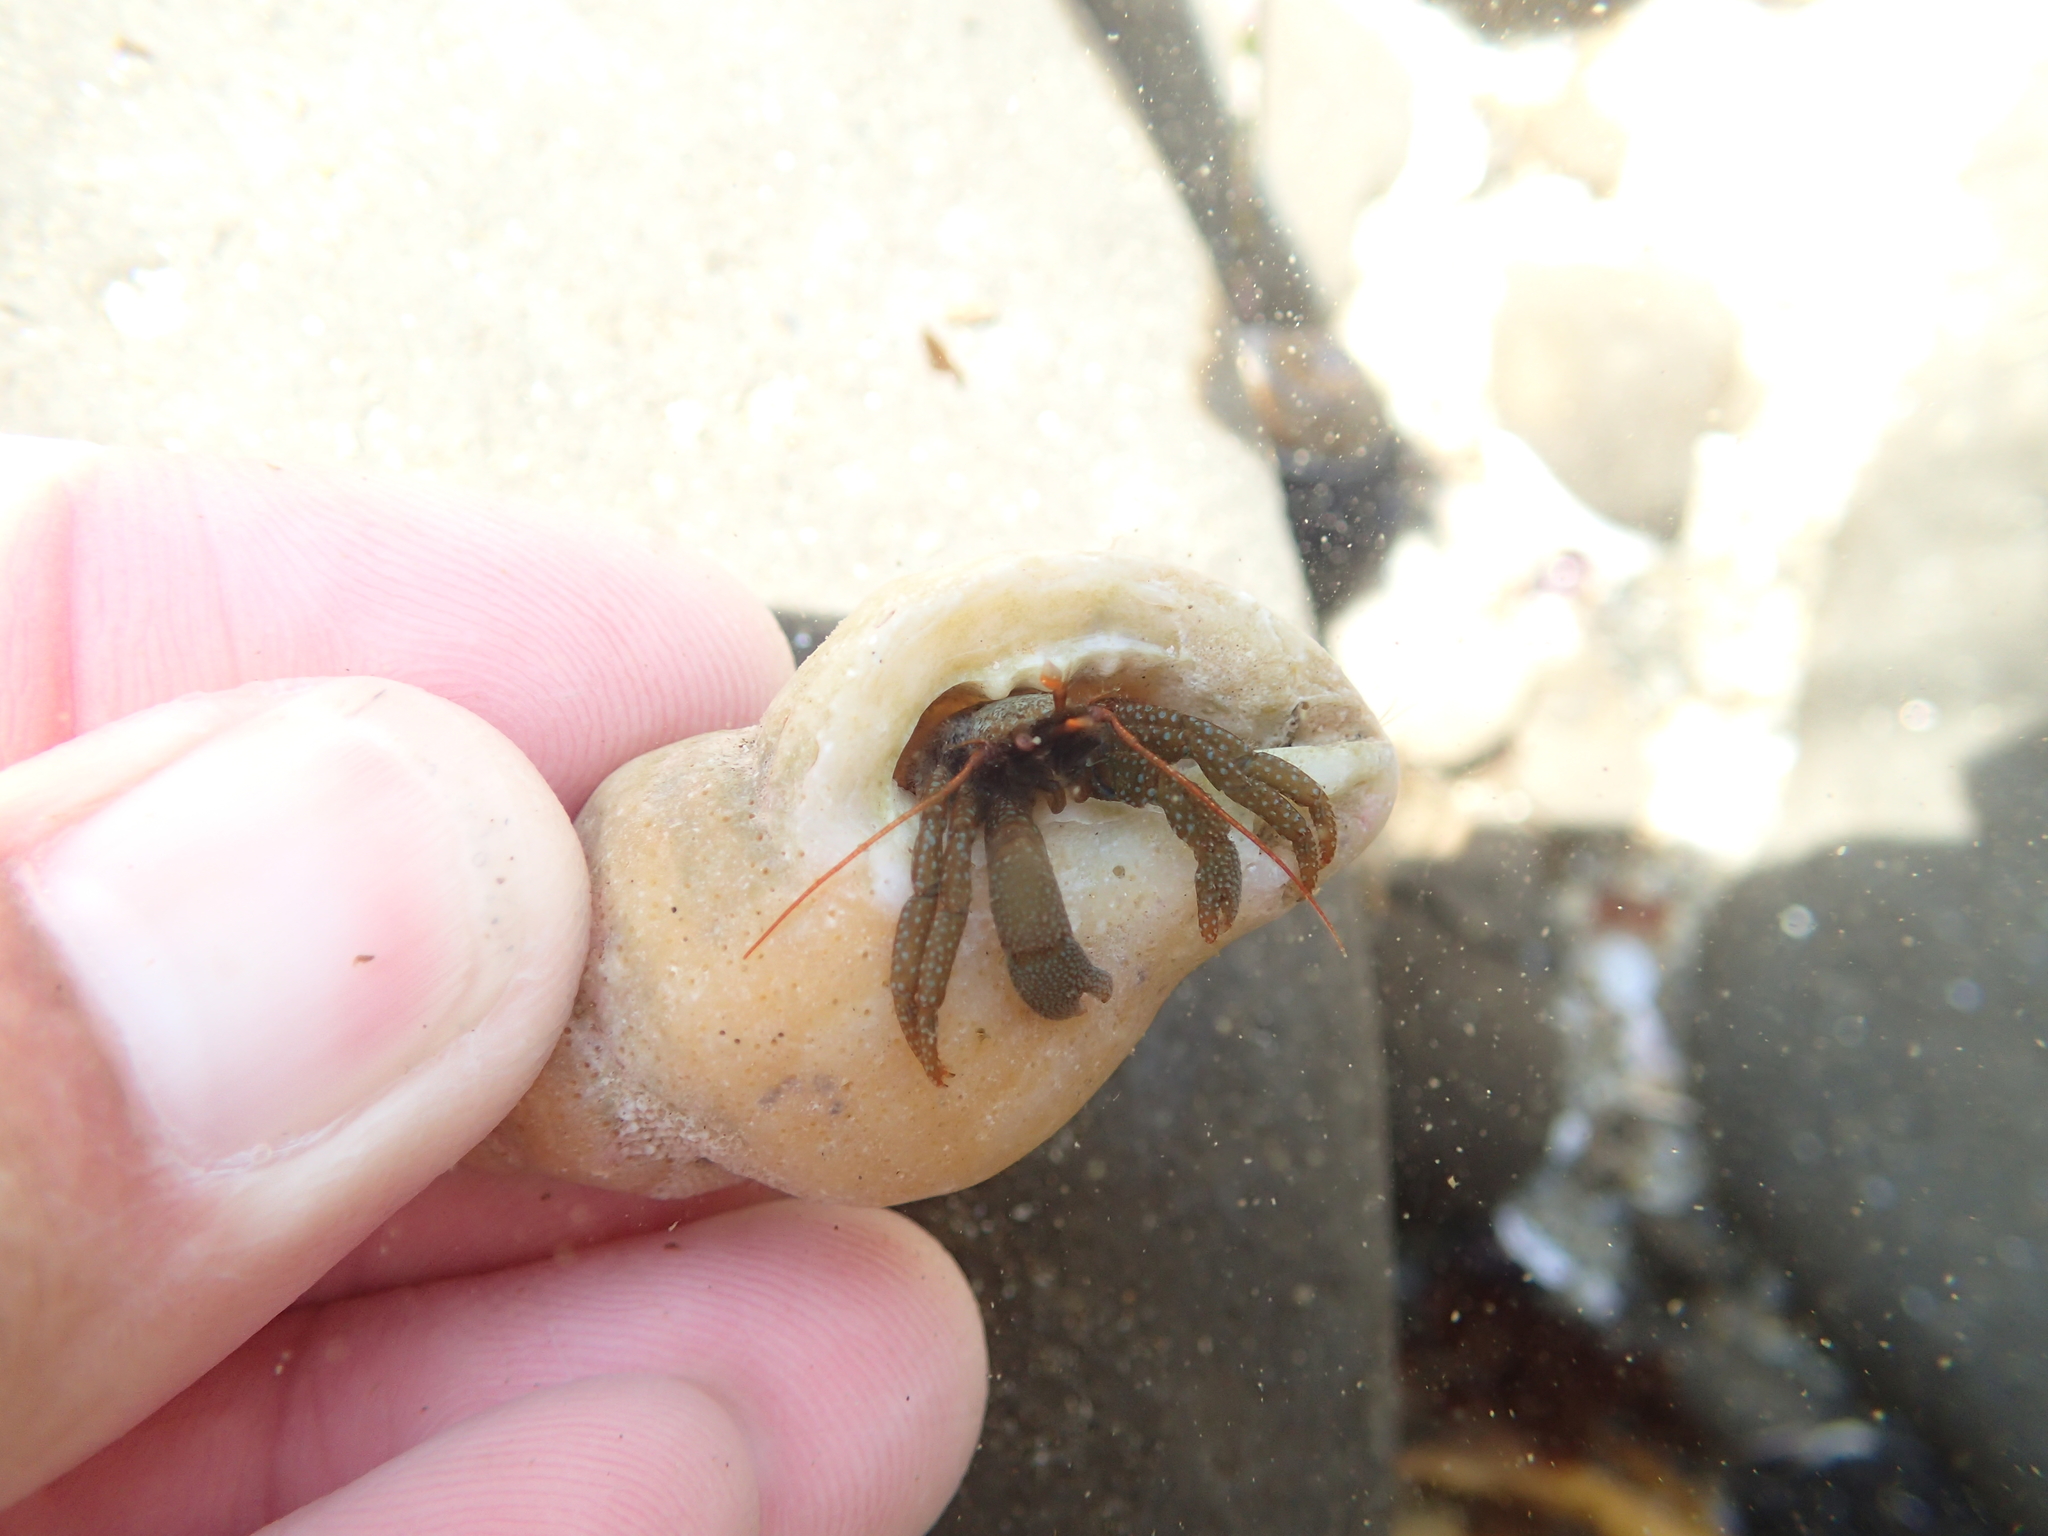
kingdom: Animalia
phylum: Arthropoda
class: Malacostraca
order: Decapoda
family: Paguridae
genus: Pagurus
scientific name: Pagurus granosimanus
